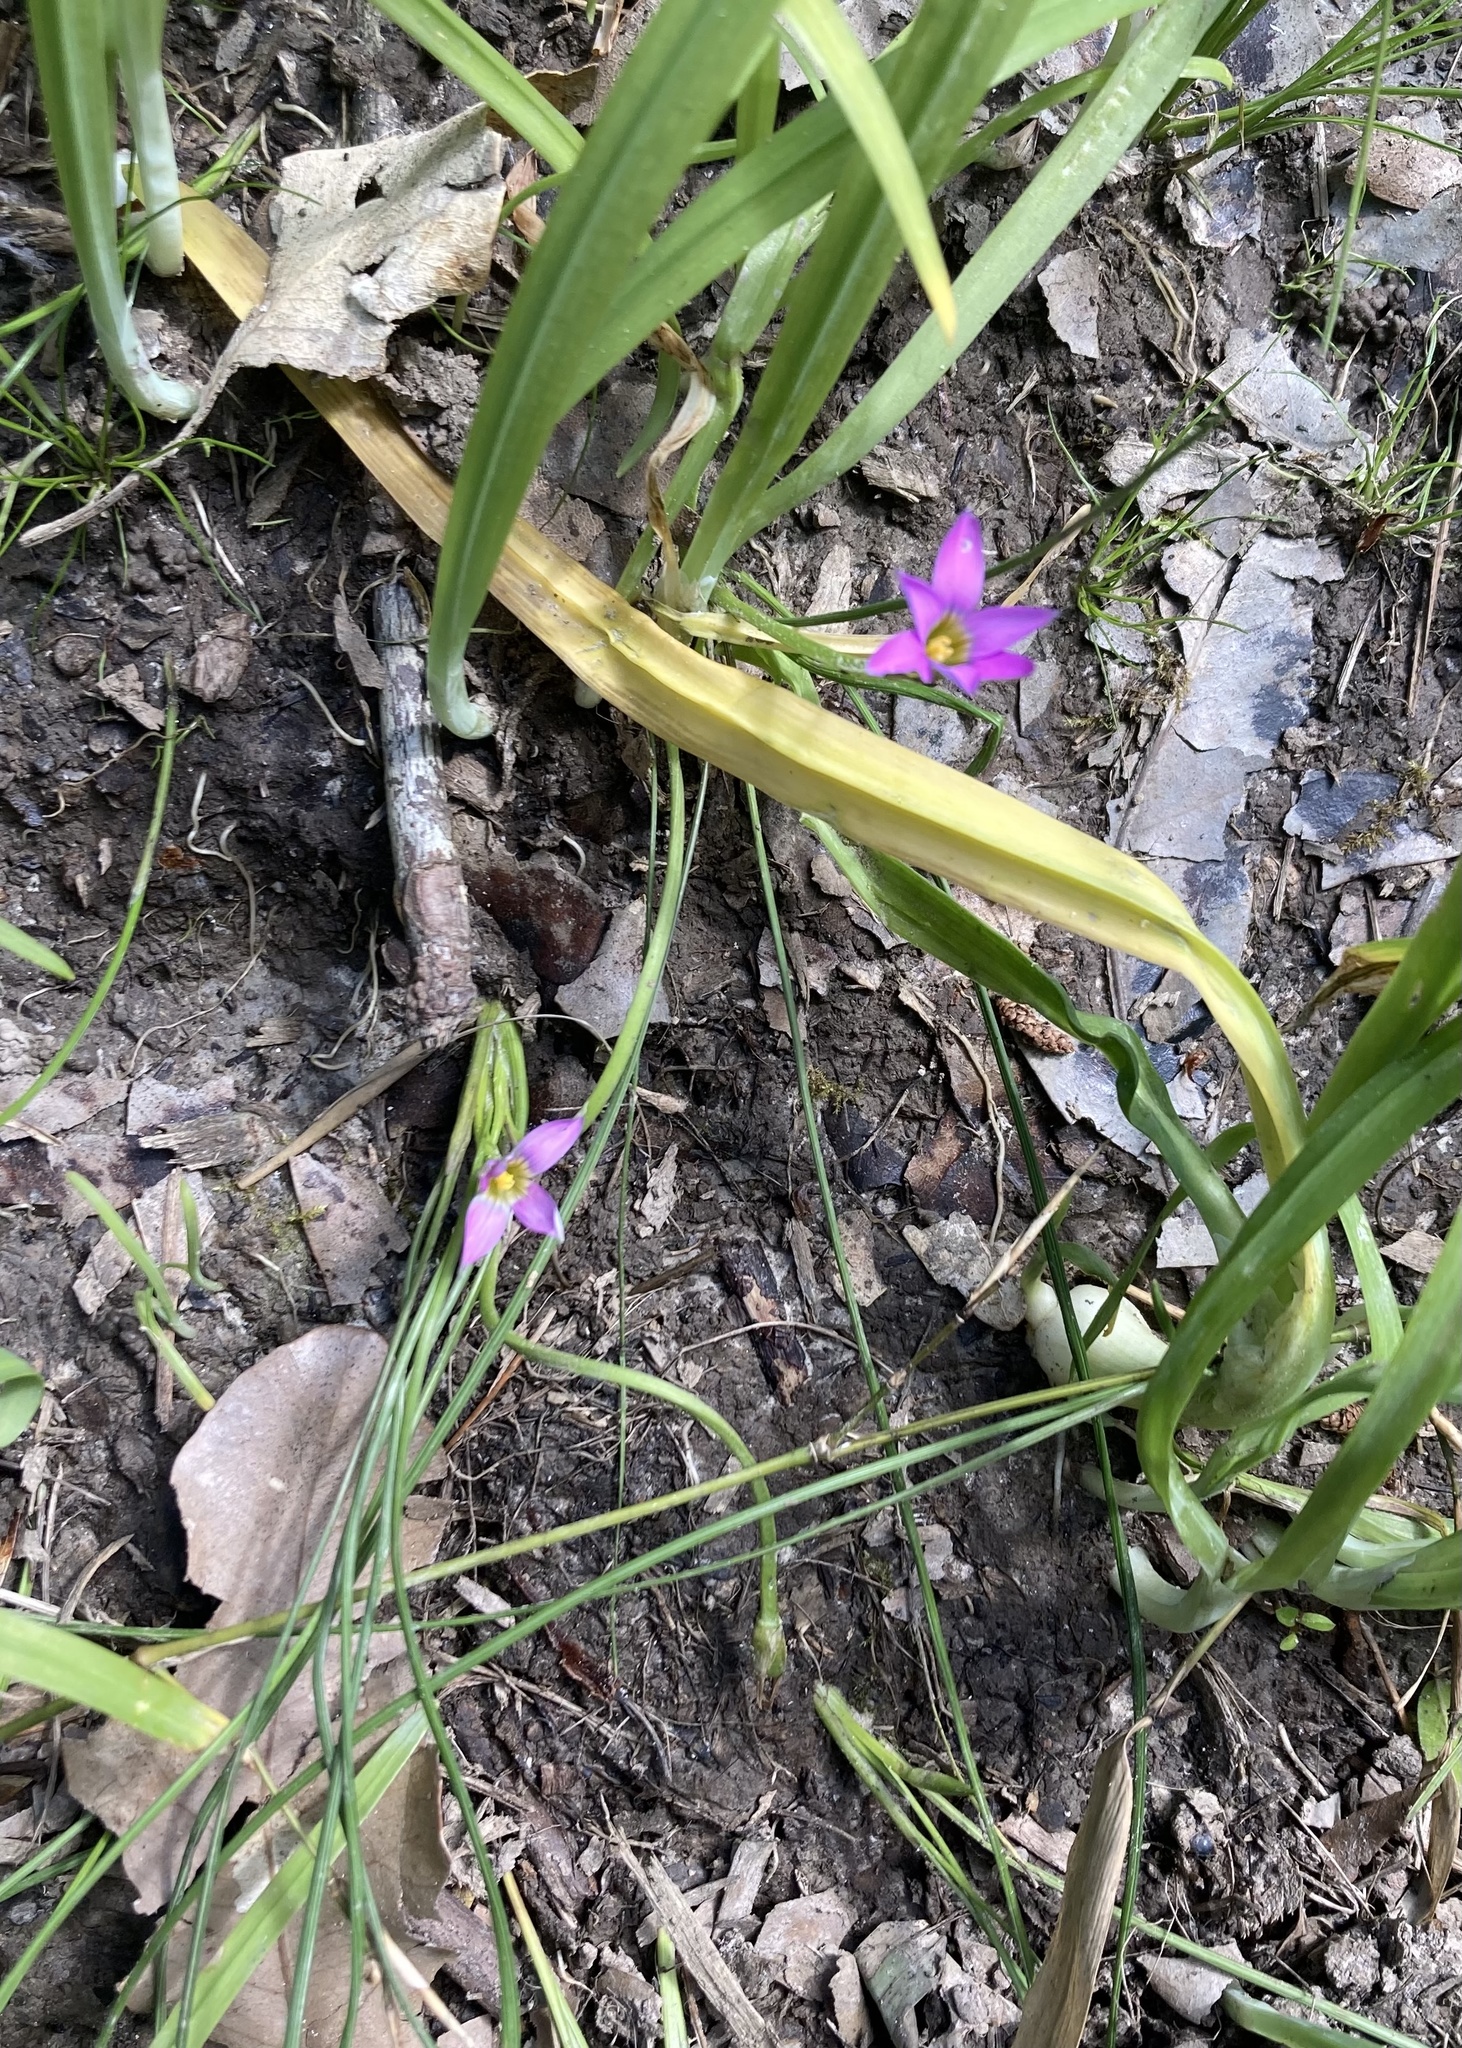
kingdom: Plantae
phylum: Tracheophyta
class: Liliopsida
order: Asparagales
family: Iridaceae
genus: Romulea
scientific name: Romulea rosea
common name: Oniongrass
